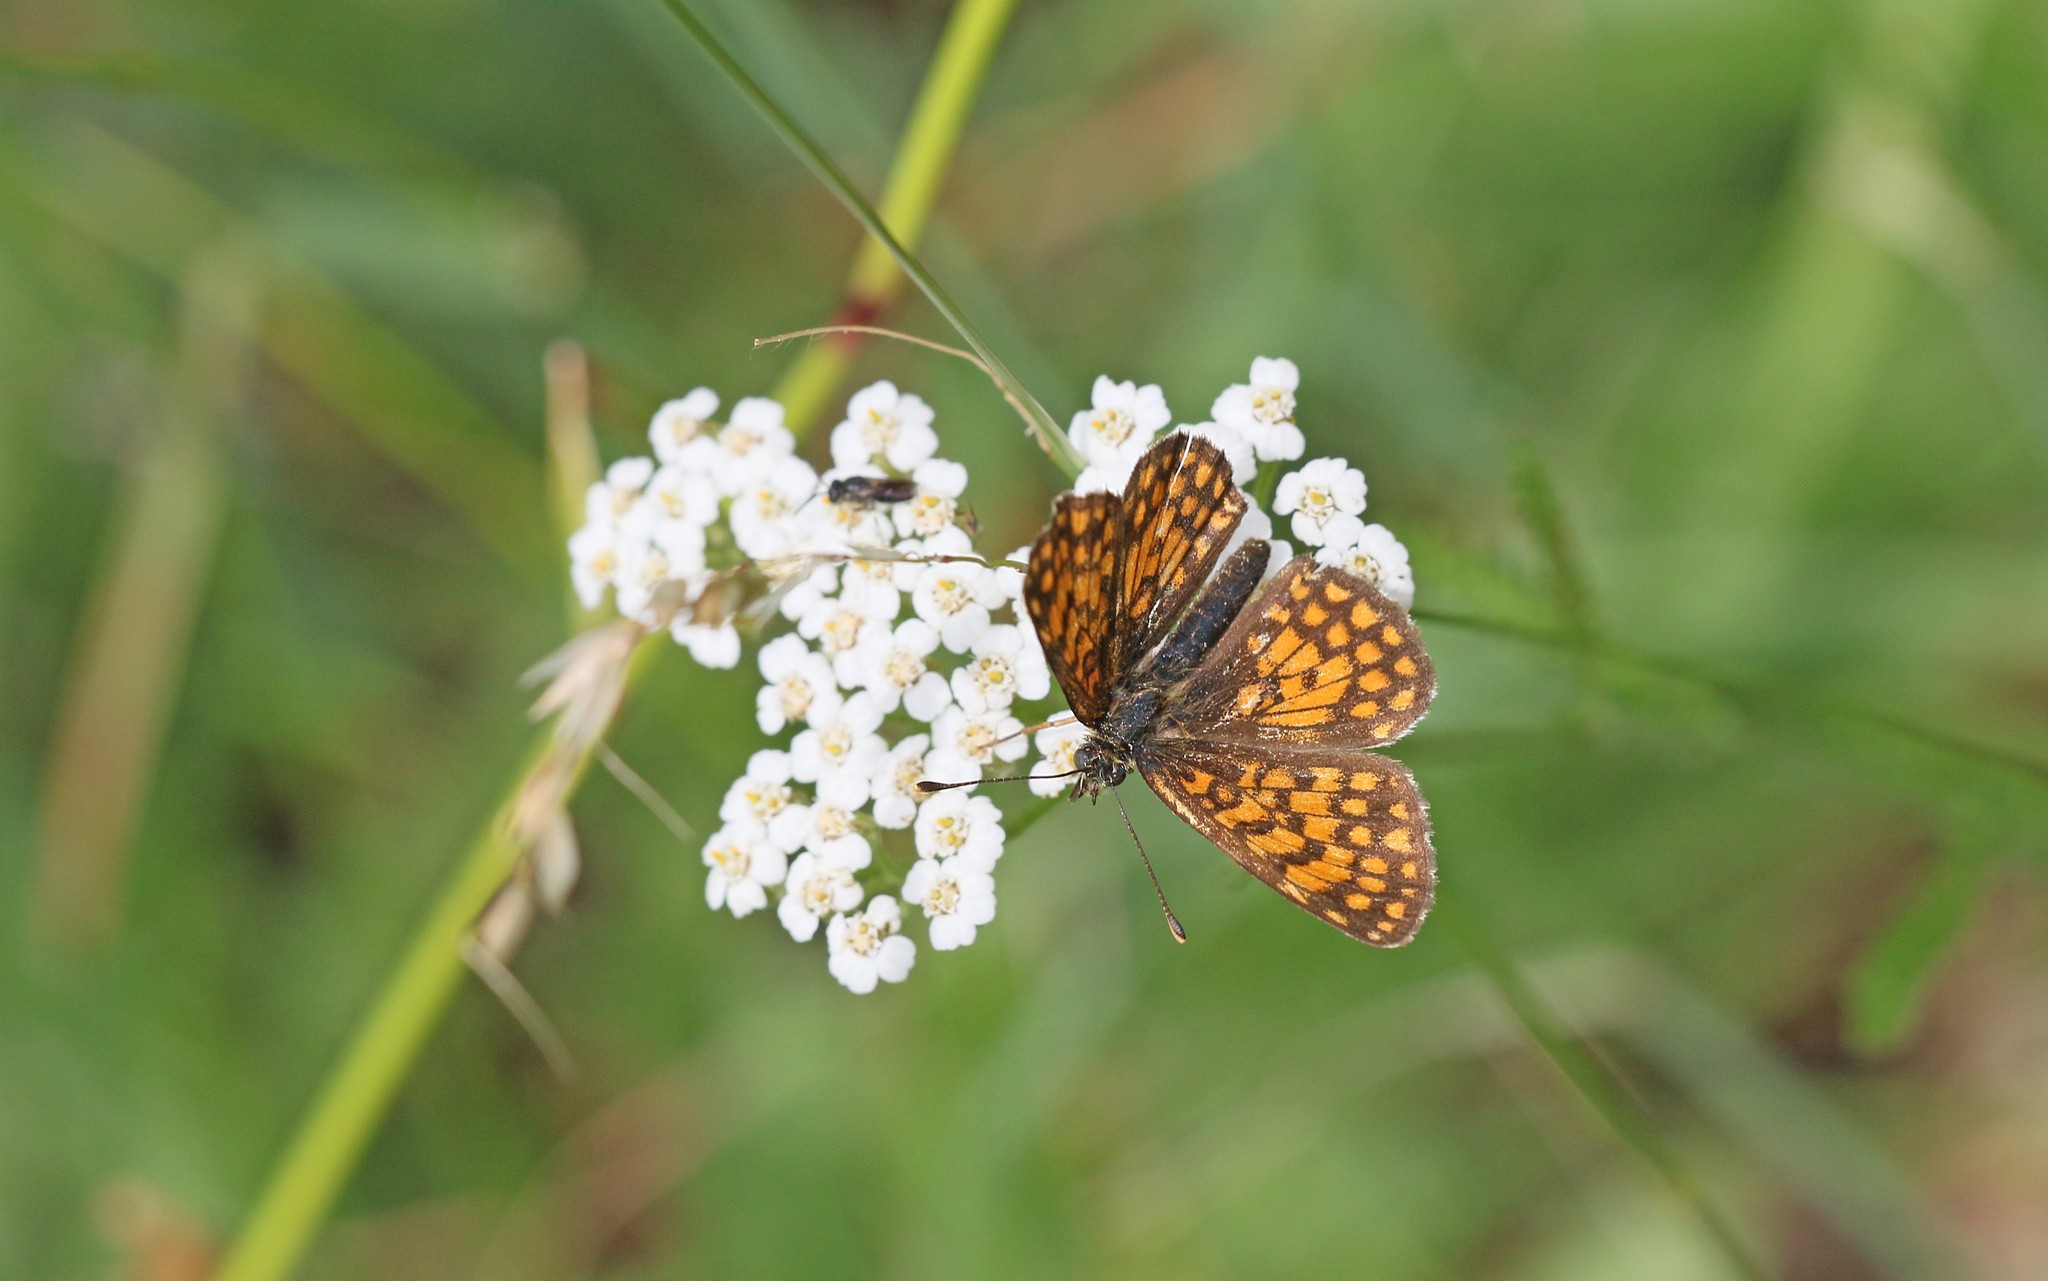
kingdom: Animalia
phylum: Arthropoda
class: Insecta
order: Lepidoptera
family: Nymphalidae
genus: Mellicta
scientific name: Mellicta athalia
